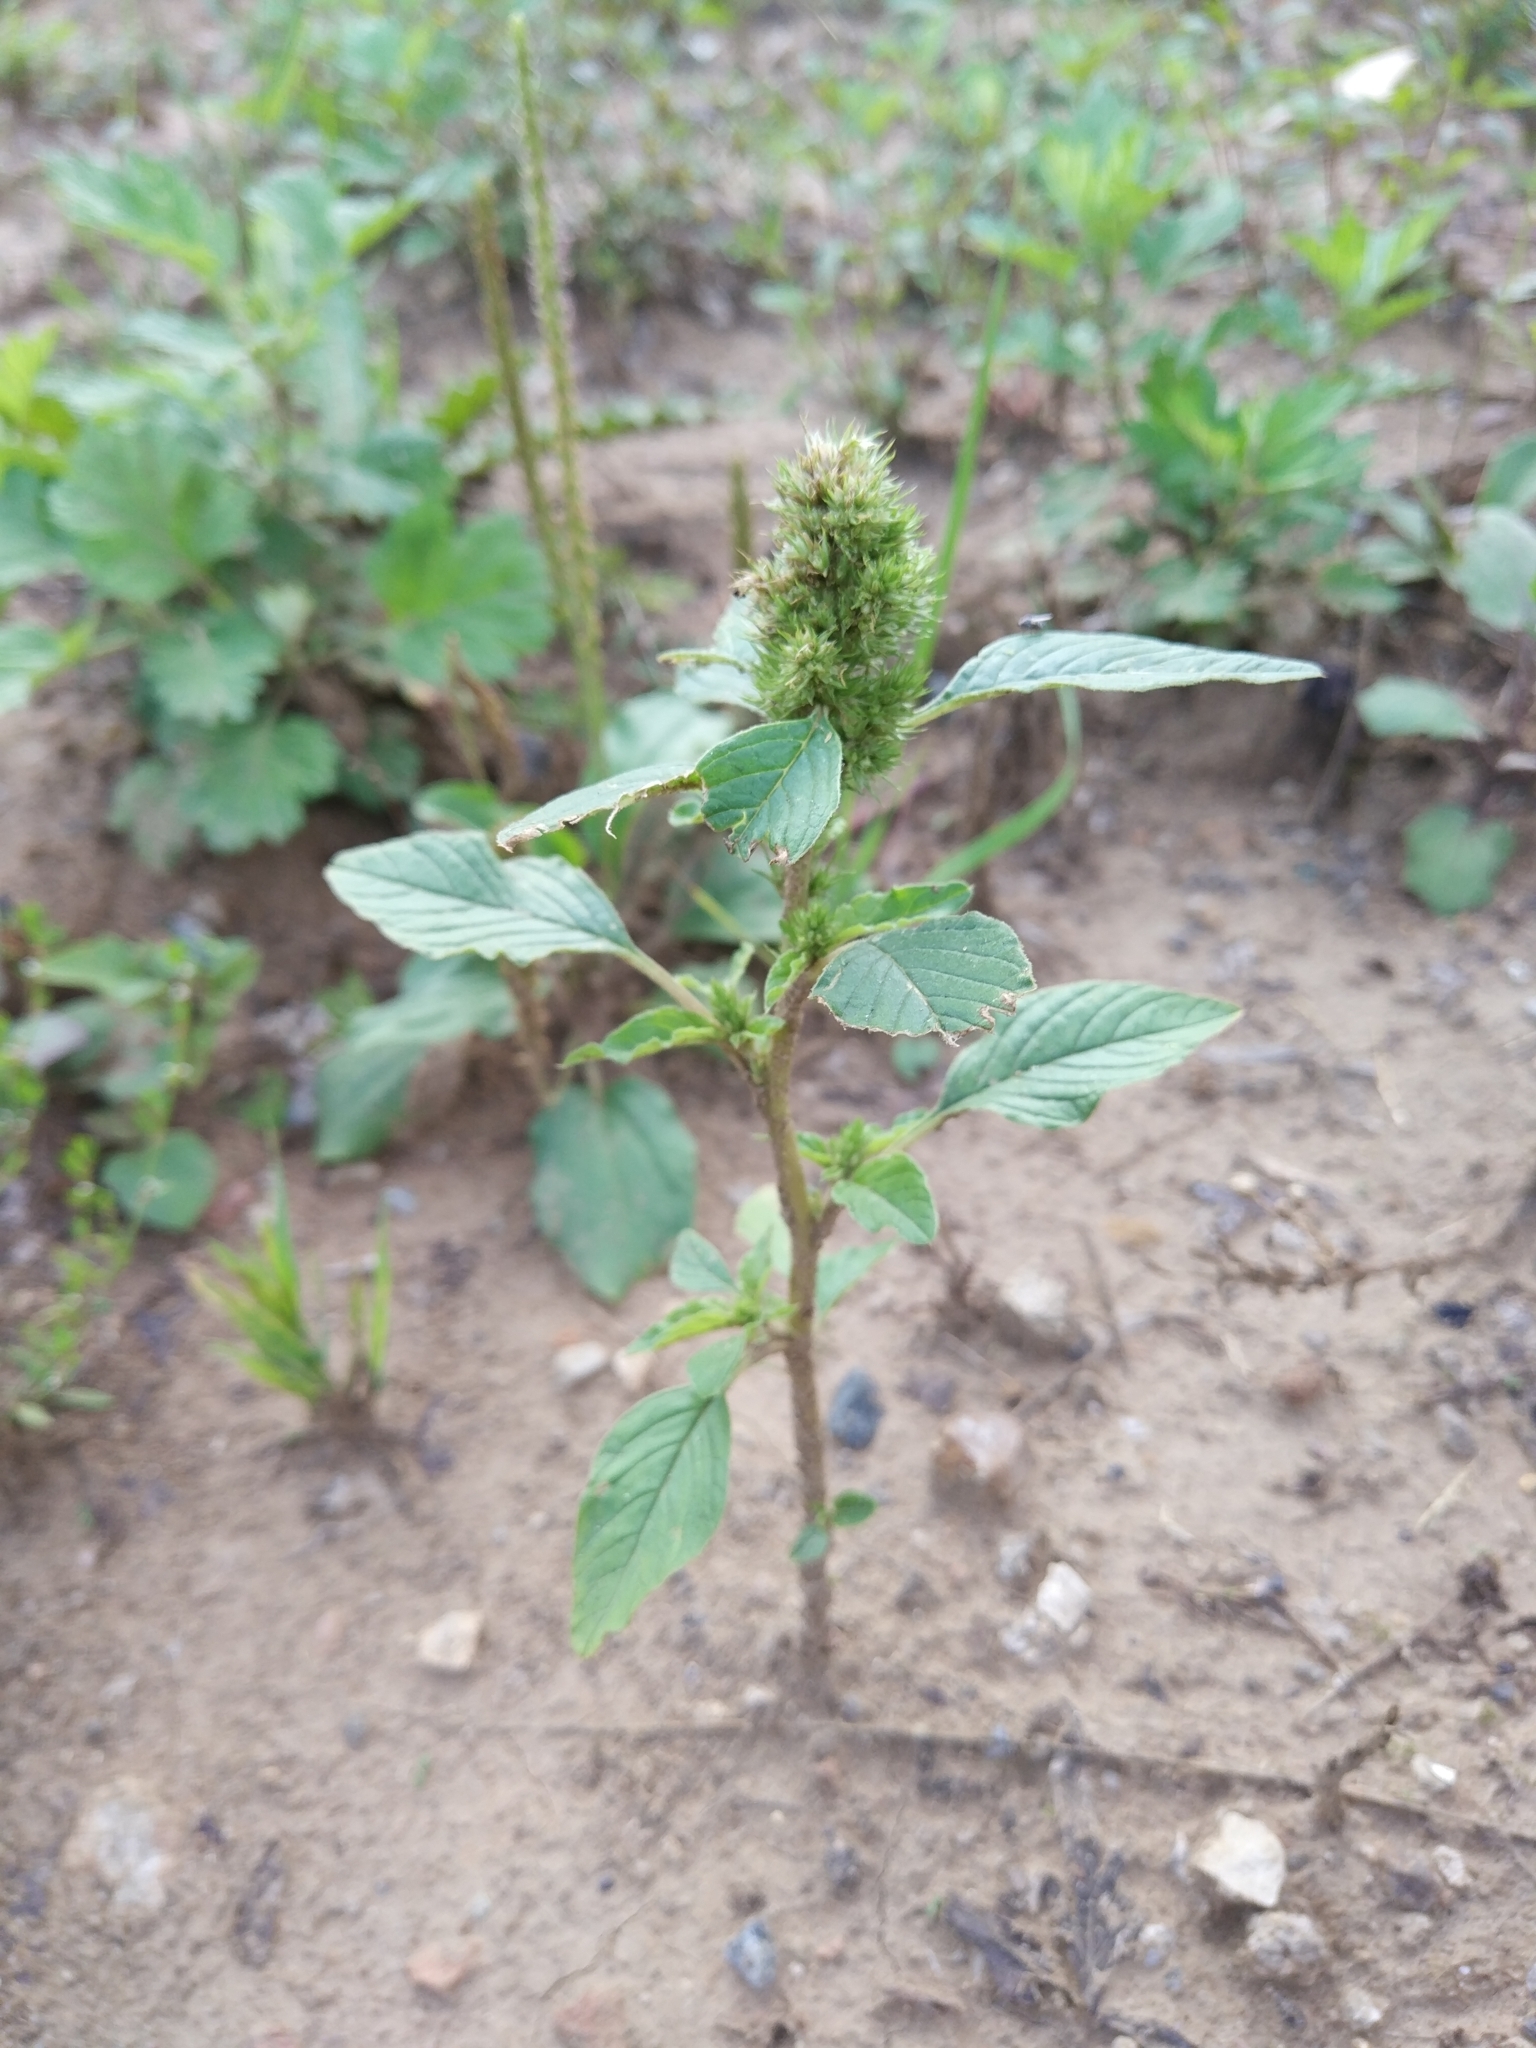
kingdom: Plantae
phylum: Tracheophyta
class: Magnoliopsida
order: Caryophyllales
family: Amaranthaceae
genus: Amaranthus
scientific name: Amaranthus retroflexus
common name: Redroot amaranth
